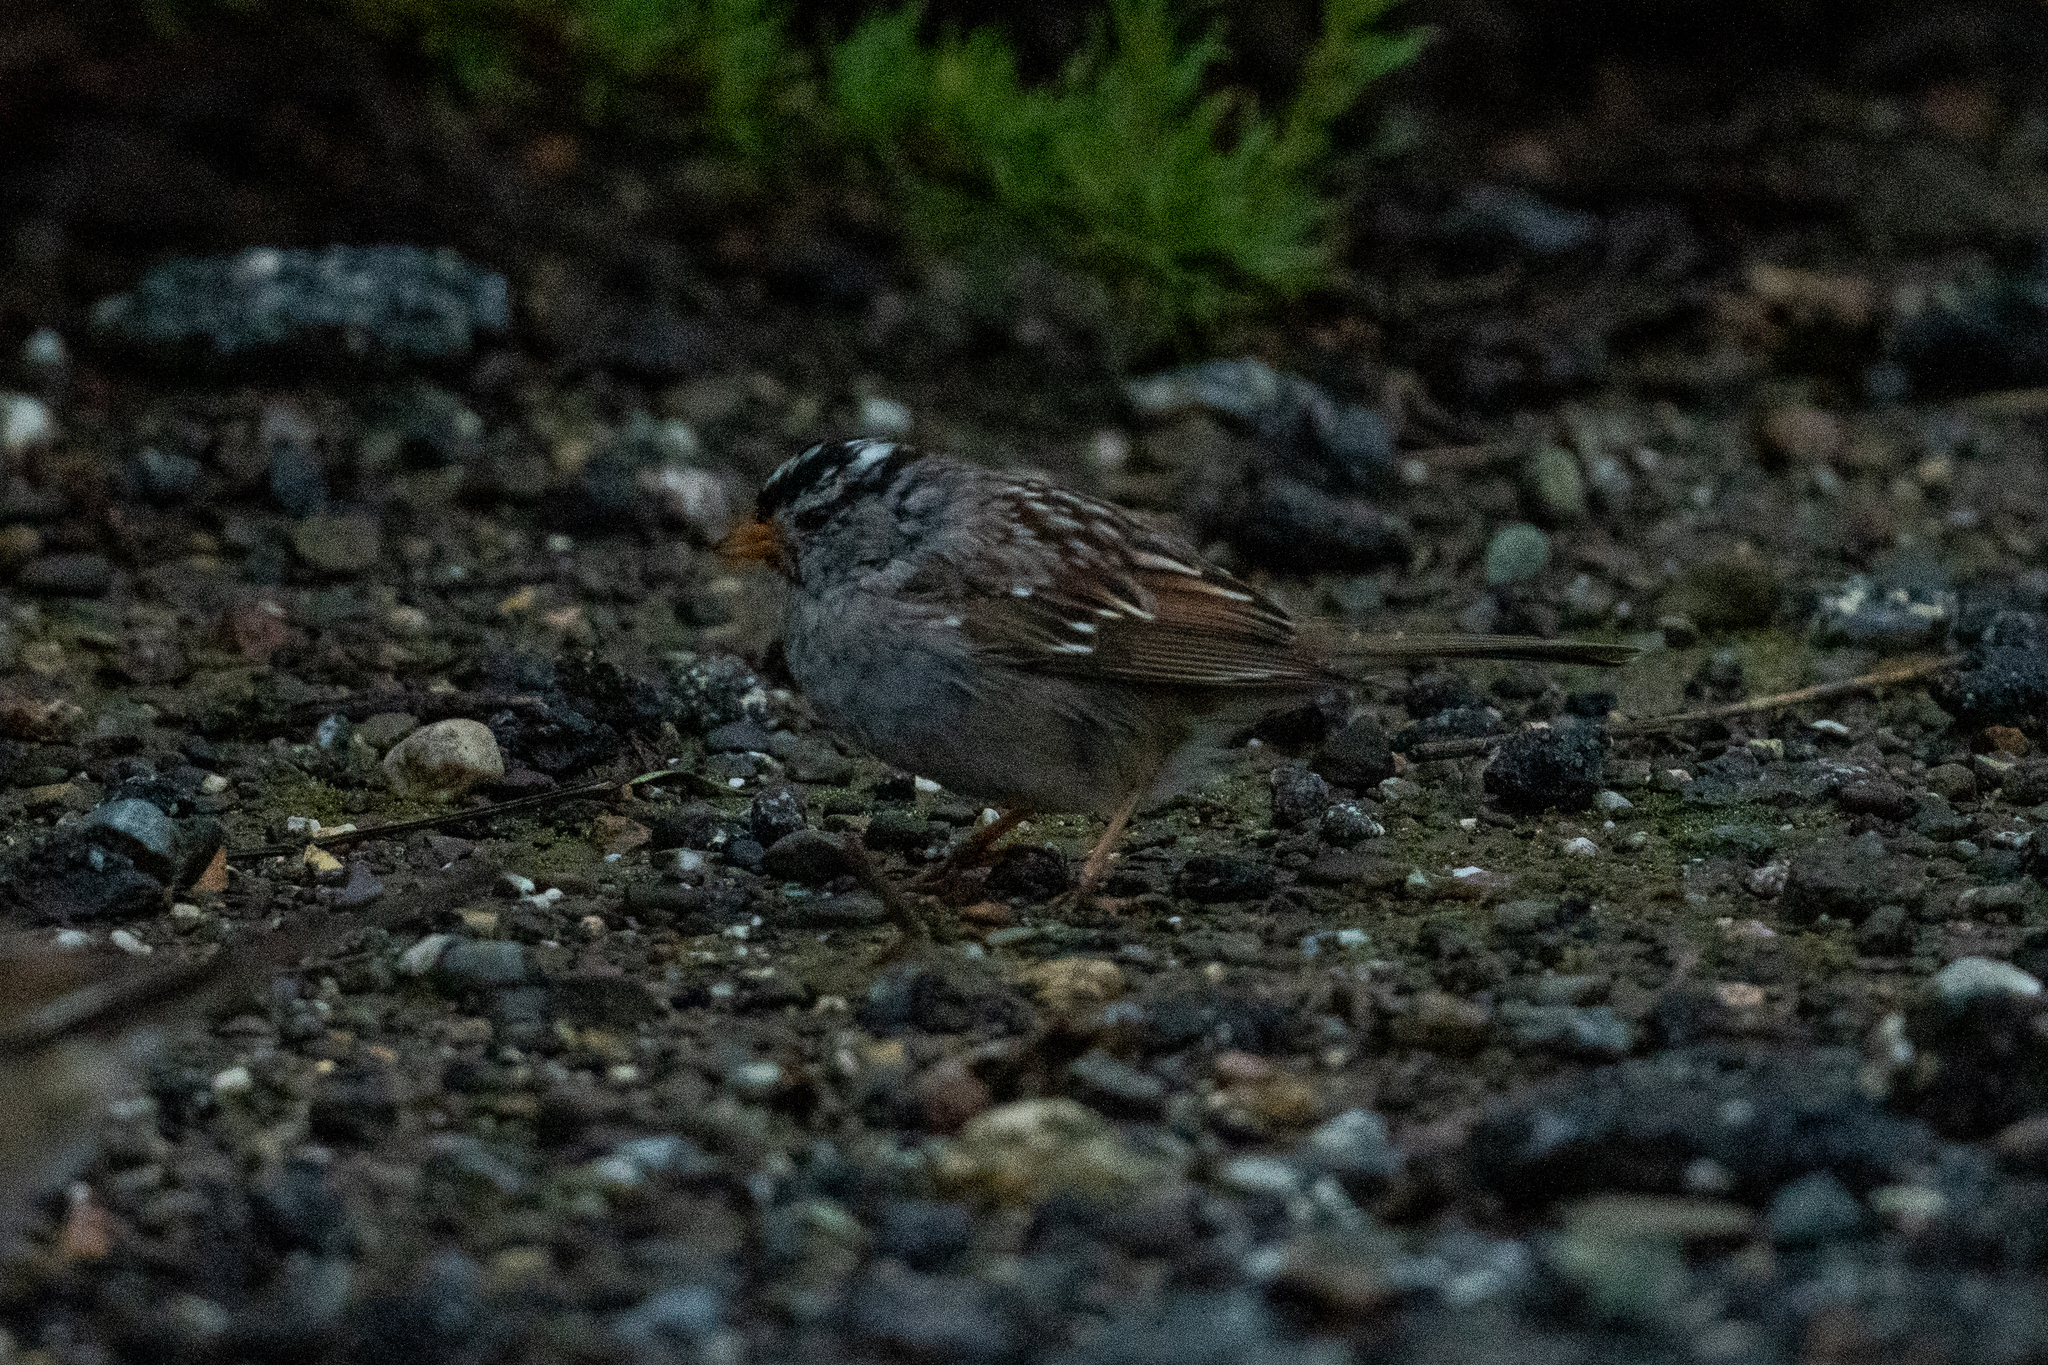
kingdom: Animalia
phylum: Chordata
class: Aves
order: Passeriformes
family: Passerellidae
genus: Zonotrichia
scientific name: Zonotrichia leucophrys
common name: White-crowned sparrow
